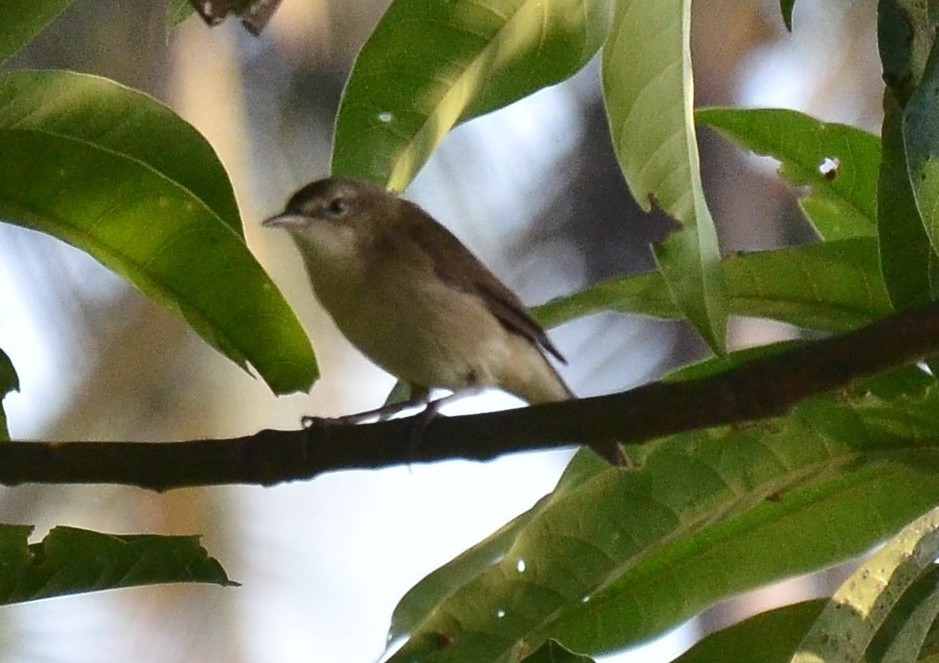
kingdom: Animalia
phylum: Chordata
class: Aves
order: Passeriformes
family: Acrocephalidae
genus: Acrocephalus
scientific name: Acrocephalus dumetorum
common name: Blyth's reed warbler
